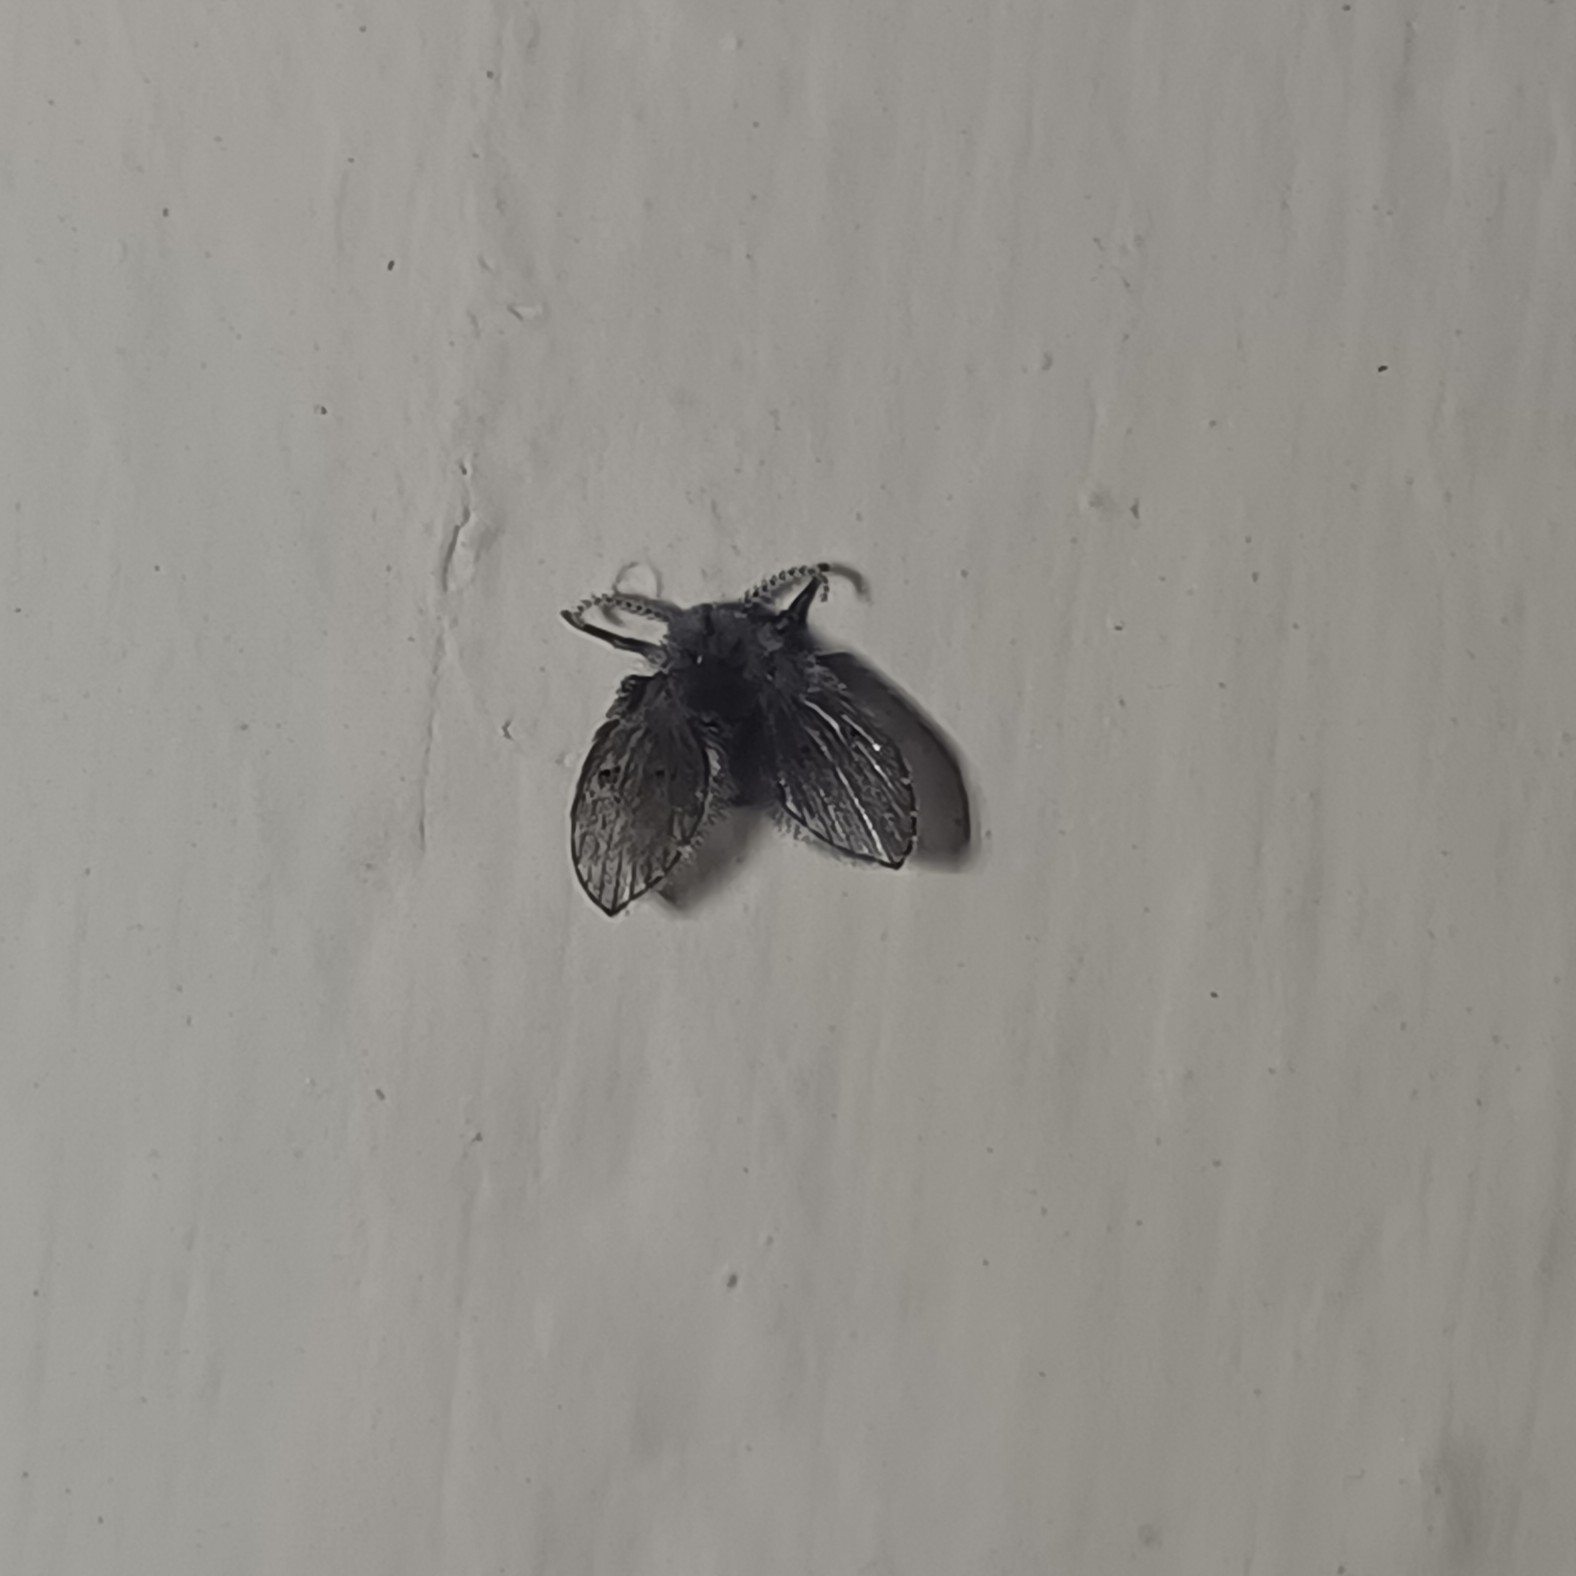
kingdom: Animalia
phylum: Arthropoda
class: Insecta
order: Diptera
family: Psychodidae
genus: Clogmia
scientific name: Clogmia albipunctatus
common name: White-spotted moth fly
